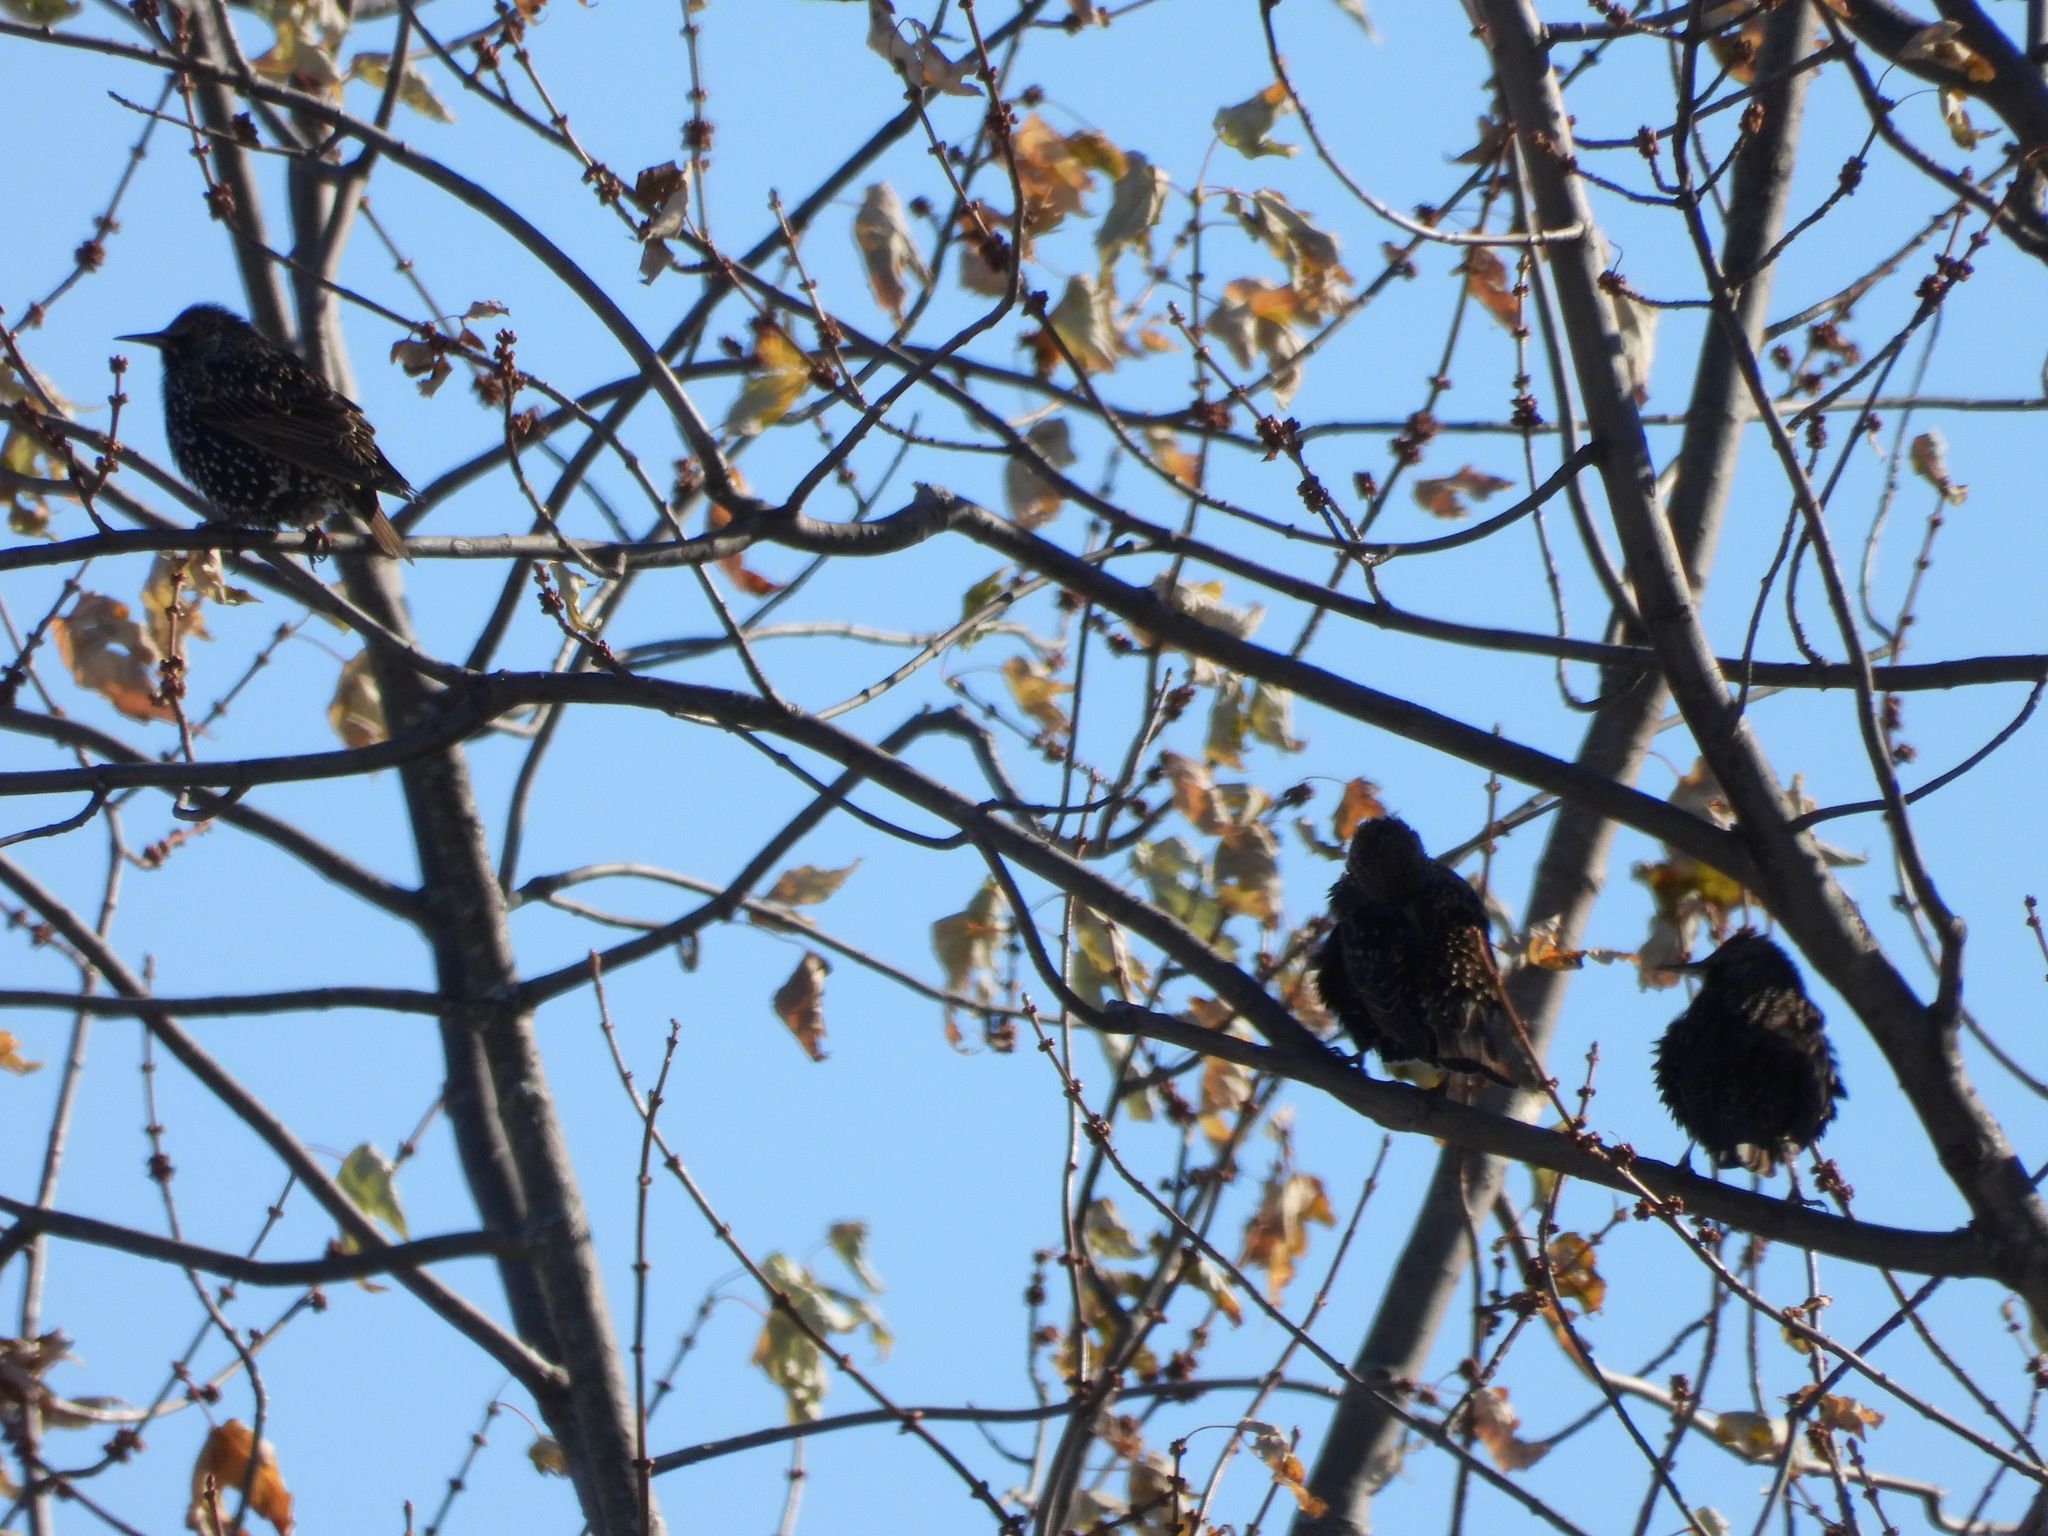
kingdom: Animalia
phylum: Chordata
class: Aves
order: Passeriformes
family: Sturnidae
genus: Sturnus
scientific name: Sturnus vulgaris
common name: Common starling
